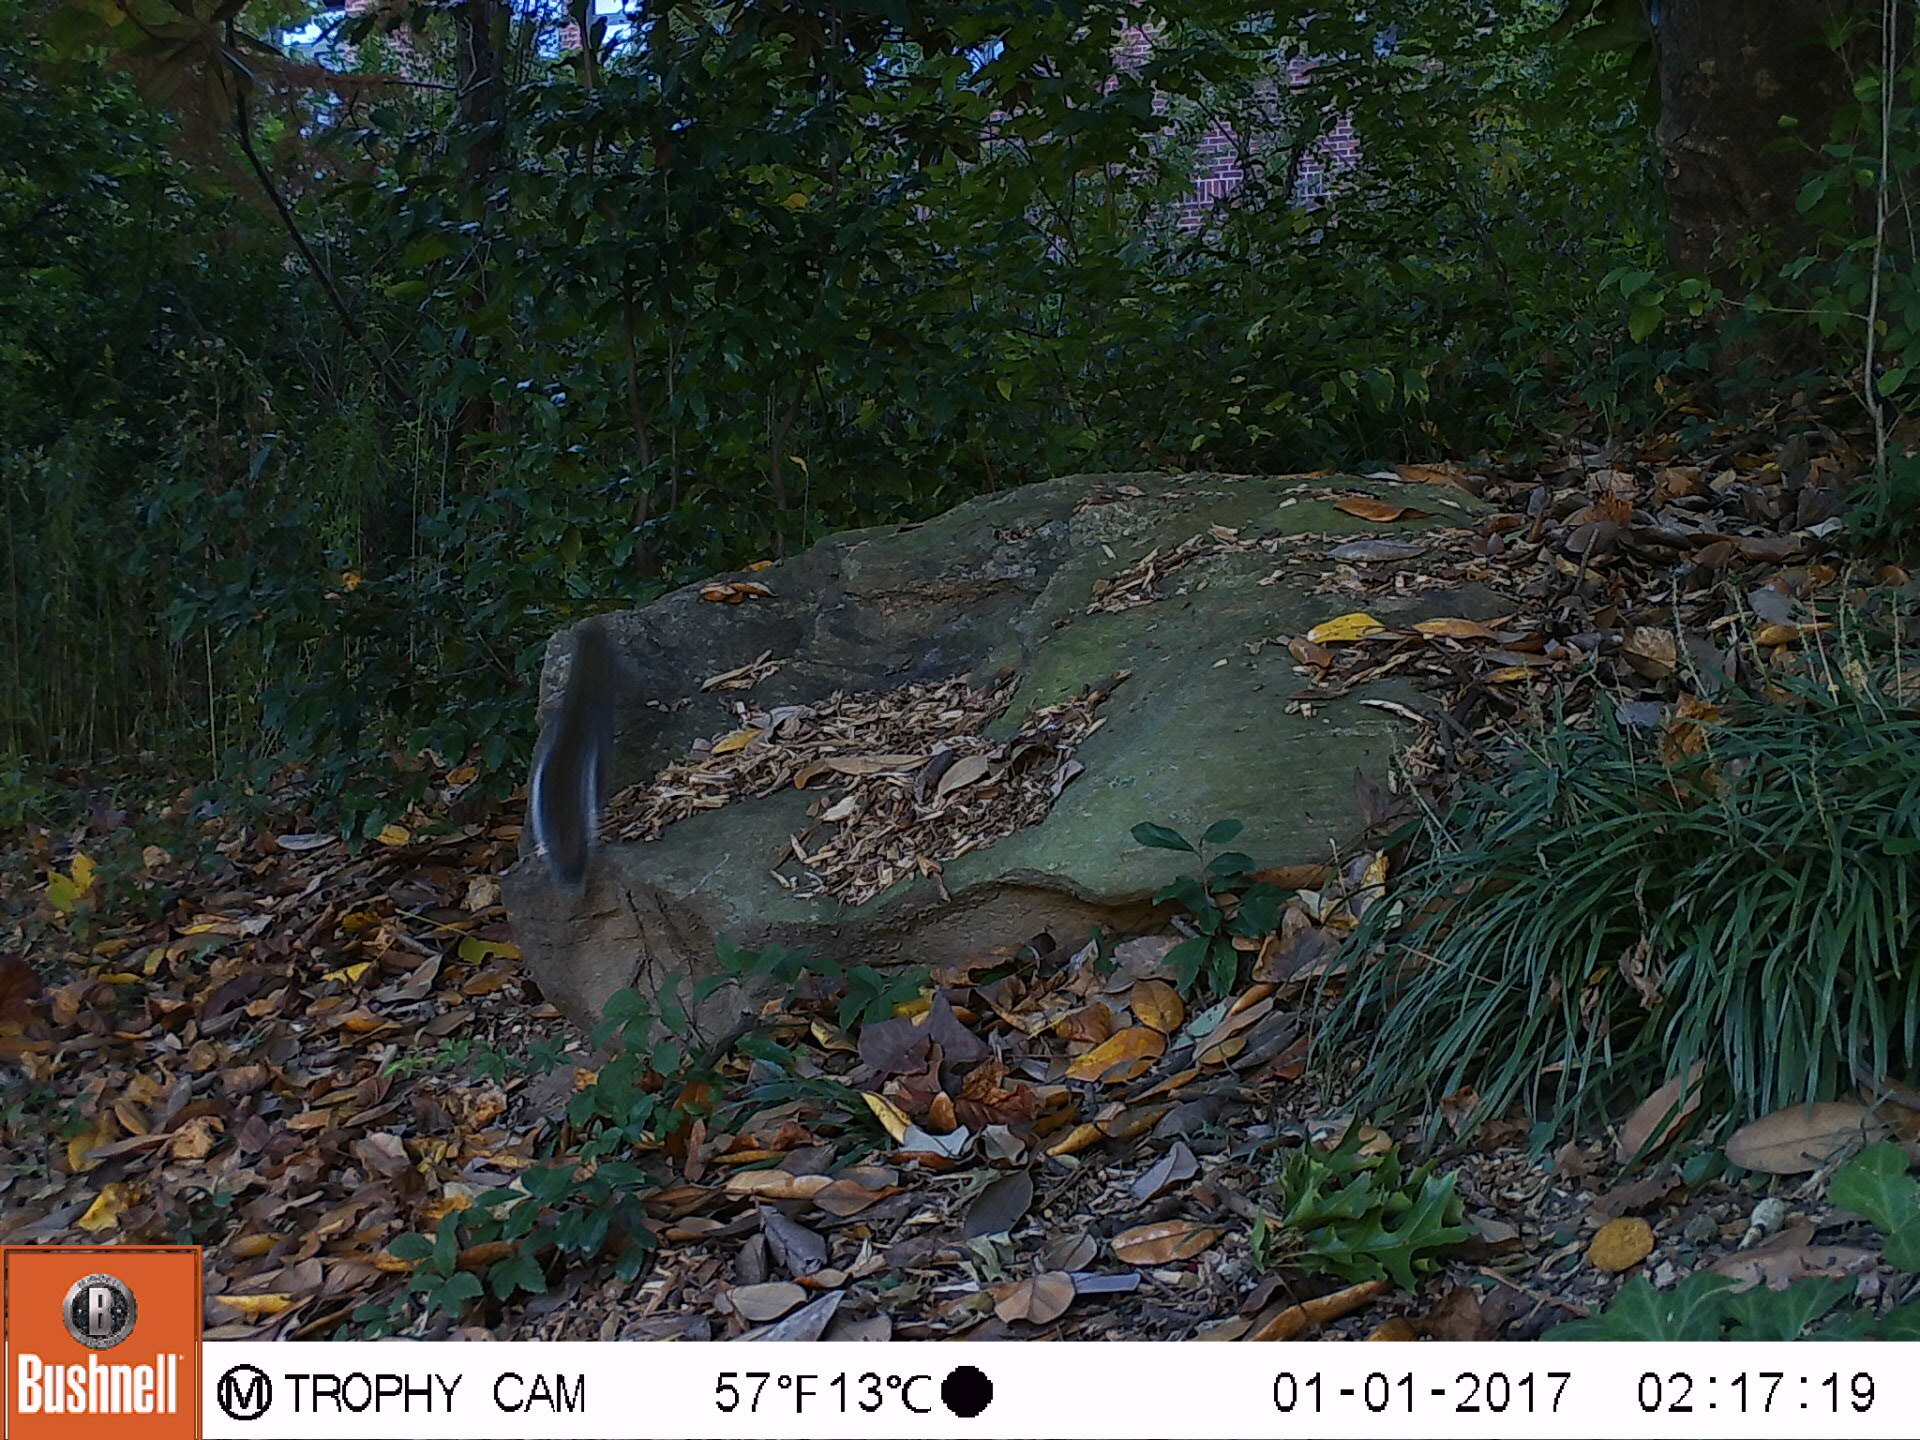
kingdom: Animalia
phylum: Chordata
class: Mammalia
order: Rodentia
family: Sciuridae
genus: Sciurus
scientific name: Sciurus carolinensis
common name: Eastern gray squirrel
